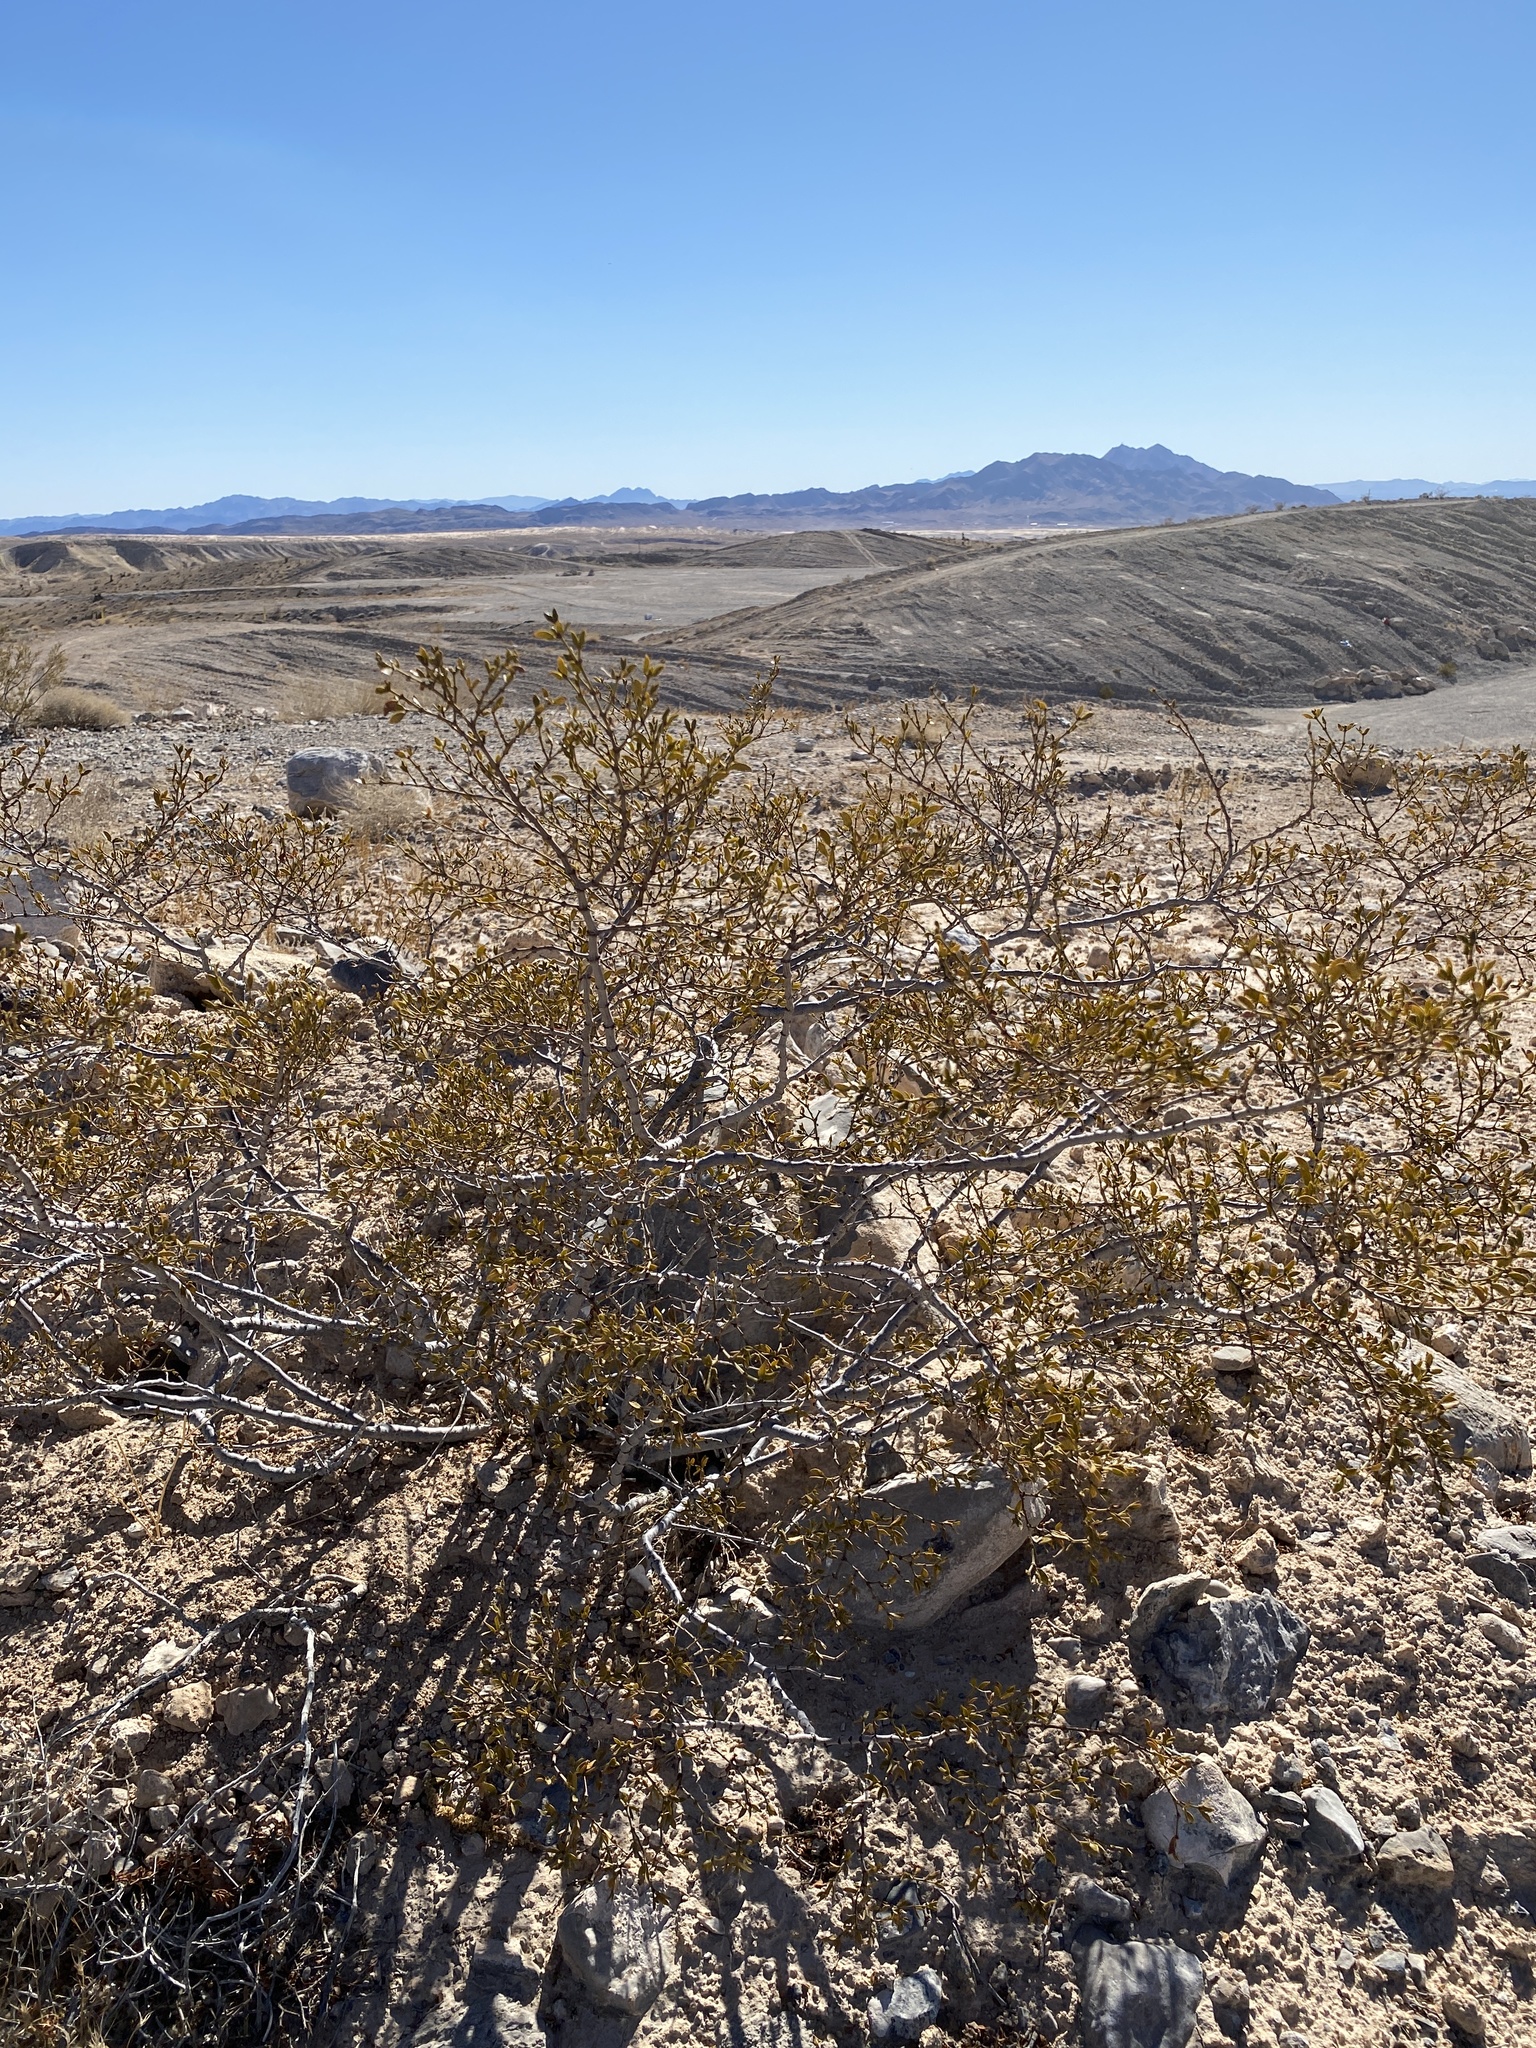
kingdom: Plantae
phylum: Tracheophyta
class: Magnoliopsida
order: Zygophyllales
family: Zygophyllaceae
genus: Larrea
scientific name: Larrea tridentata
